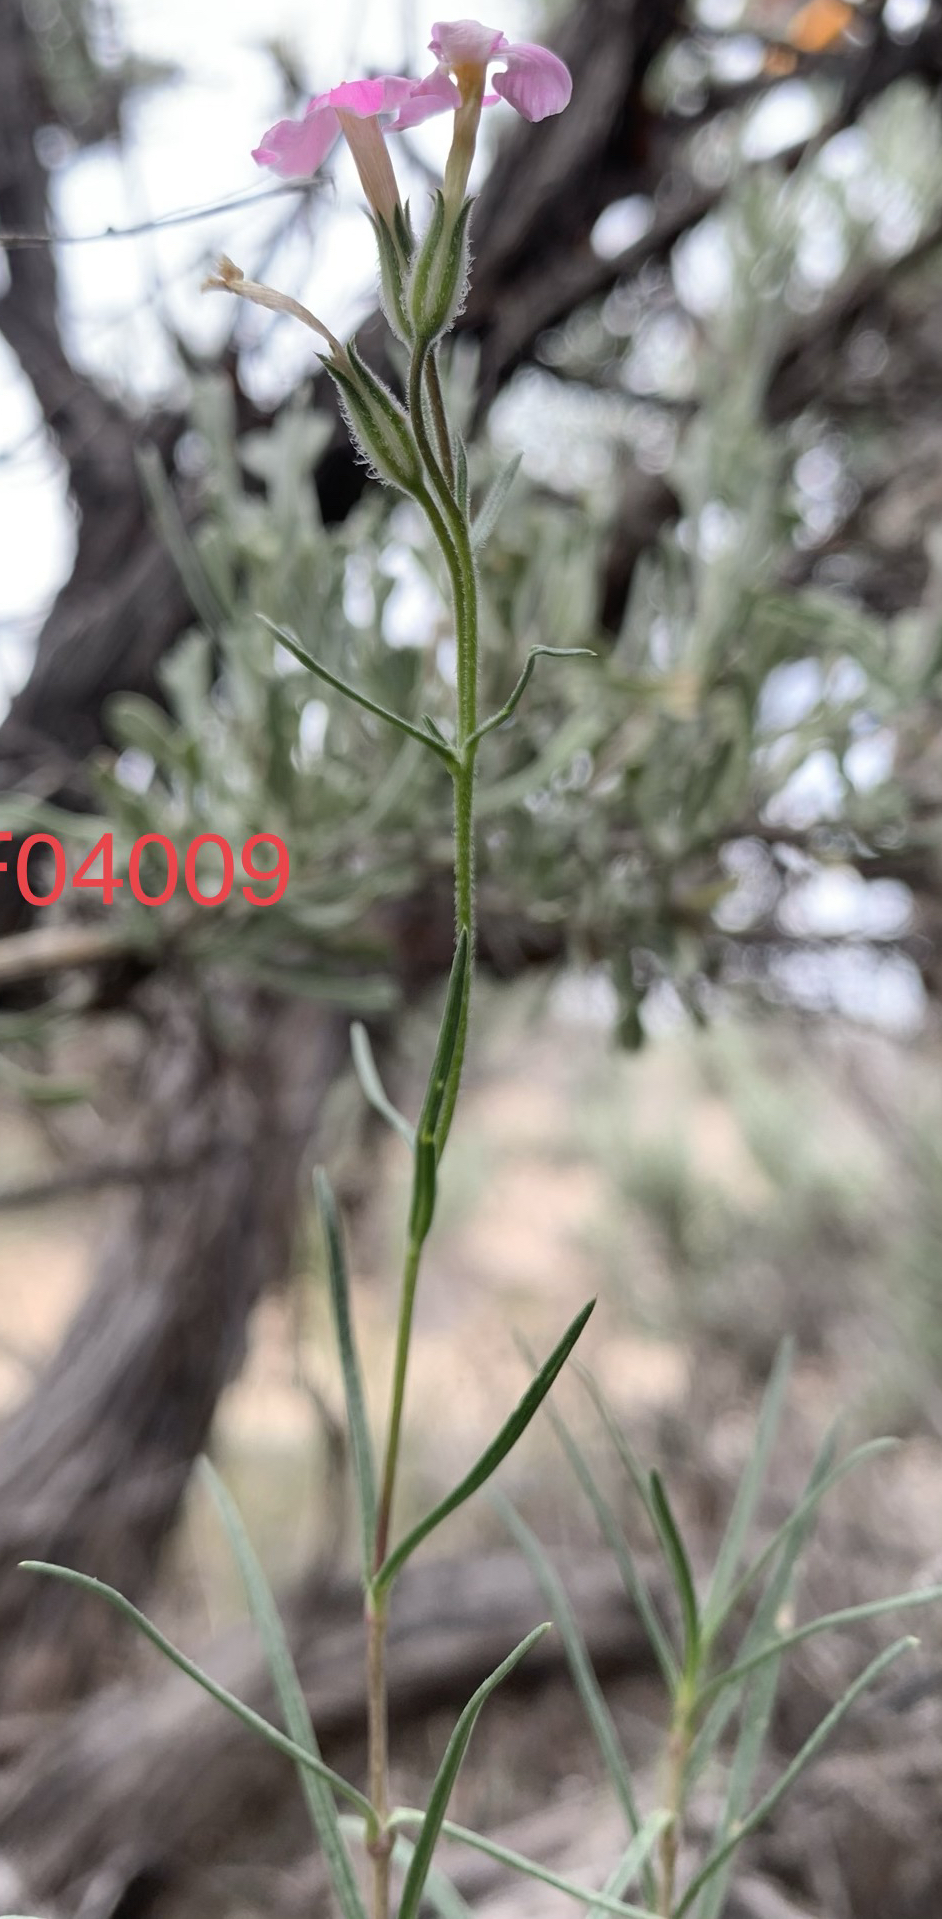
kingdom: Plantae
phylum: Tracheophyta
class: Magnoliopsida
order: Ericales
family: Polemoniaceae
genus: Phlox
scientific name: Phlox longifolia
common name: Longleaf phlox
